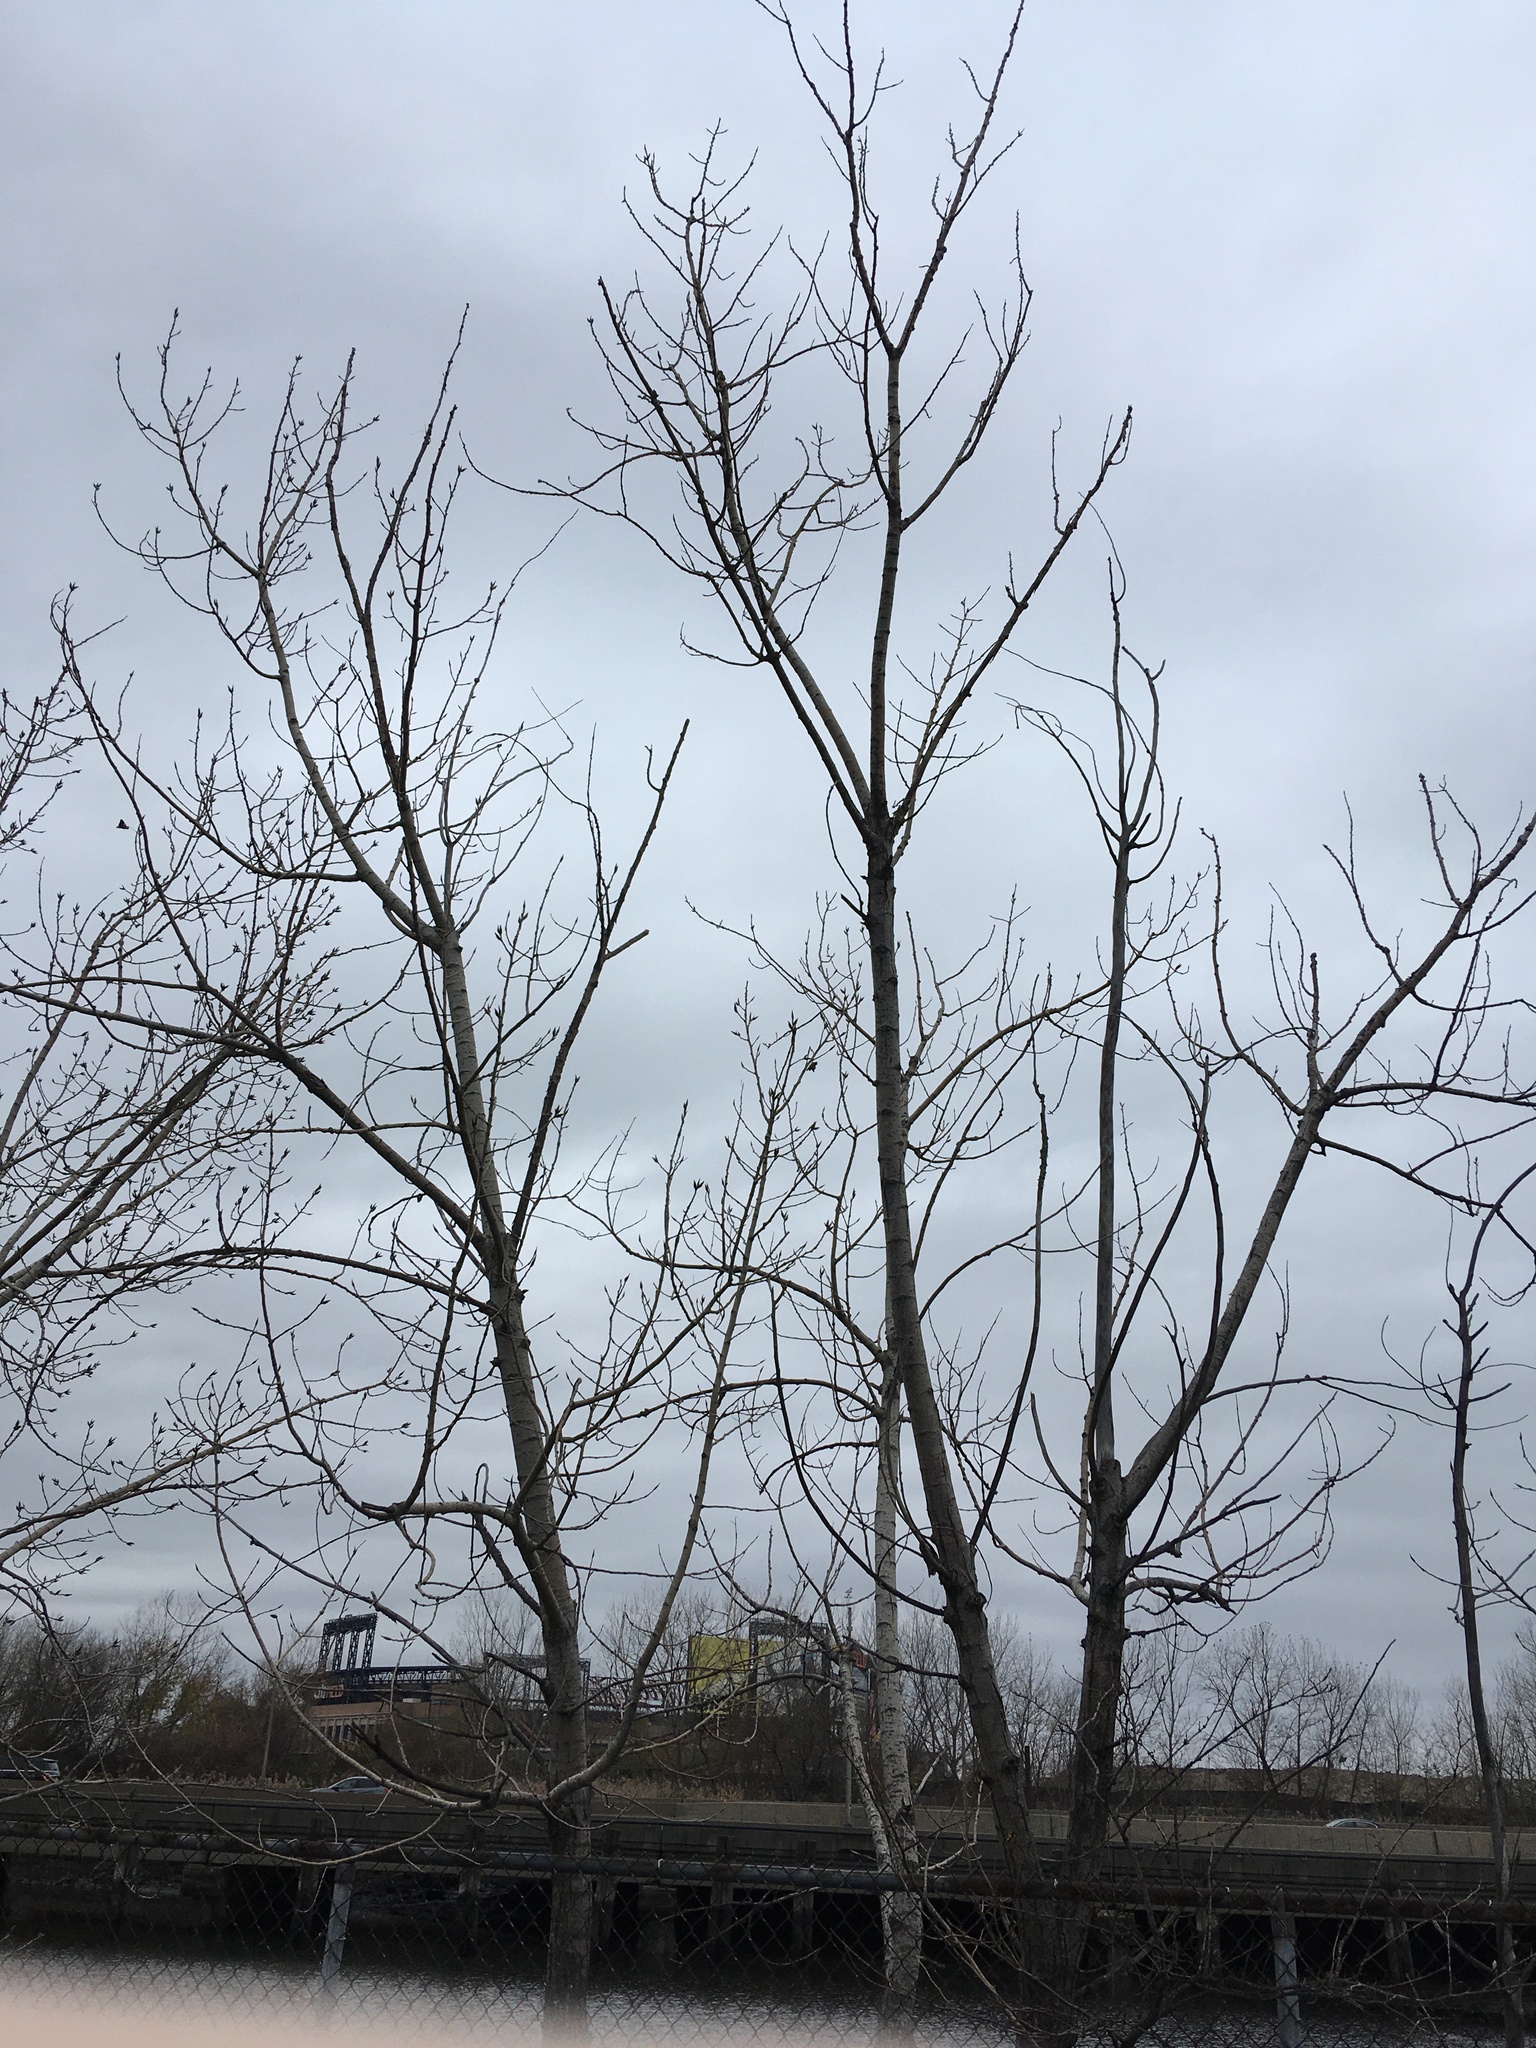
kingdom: Plantae
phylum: Tracheophyta
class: Magnoliopsida
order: Malpighiales
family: Salicaceae
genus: Populus
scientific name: Populus deltoides
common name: Eastern cottonwood
